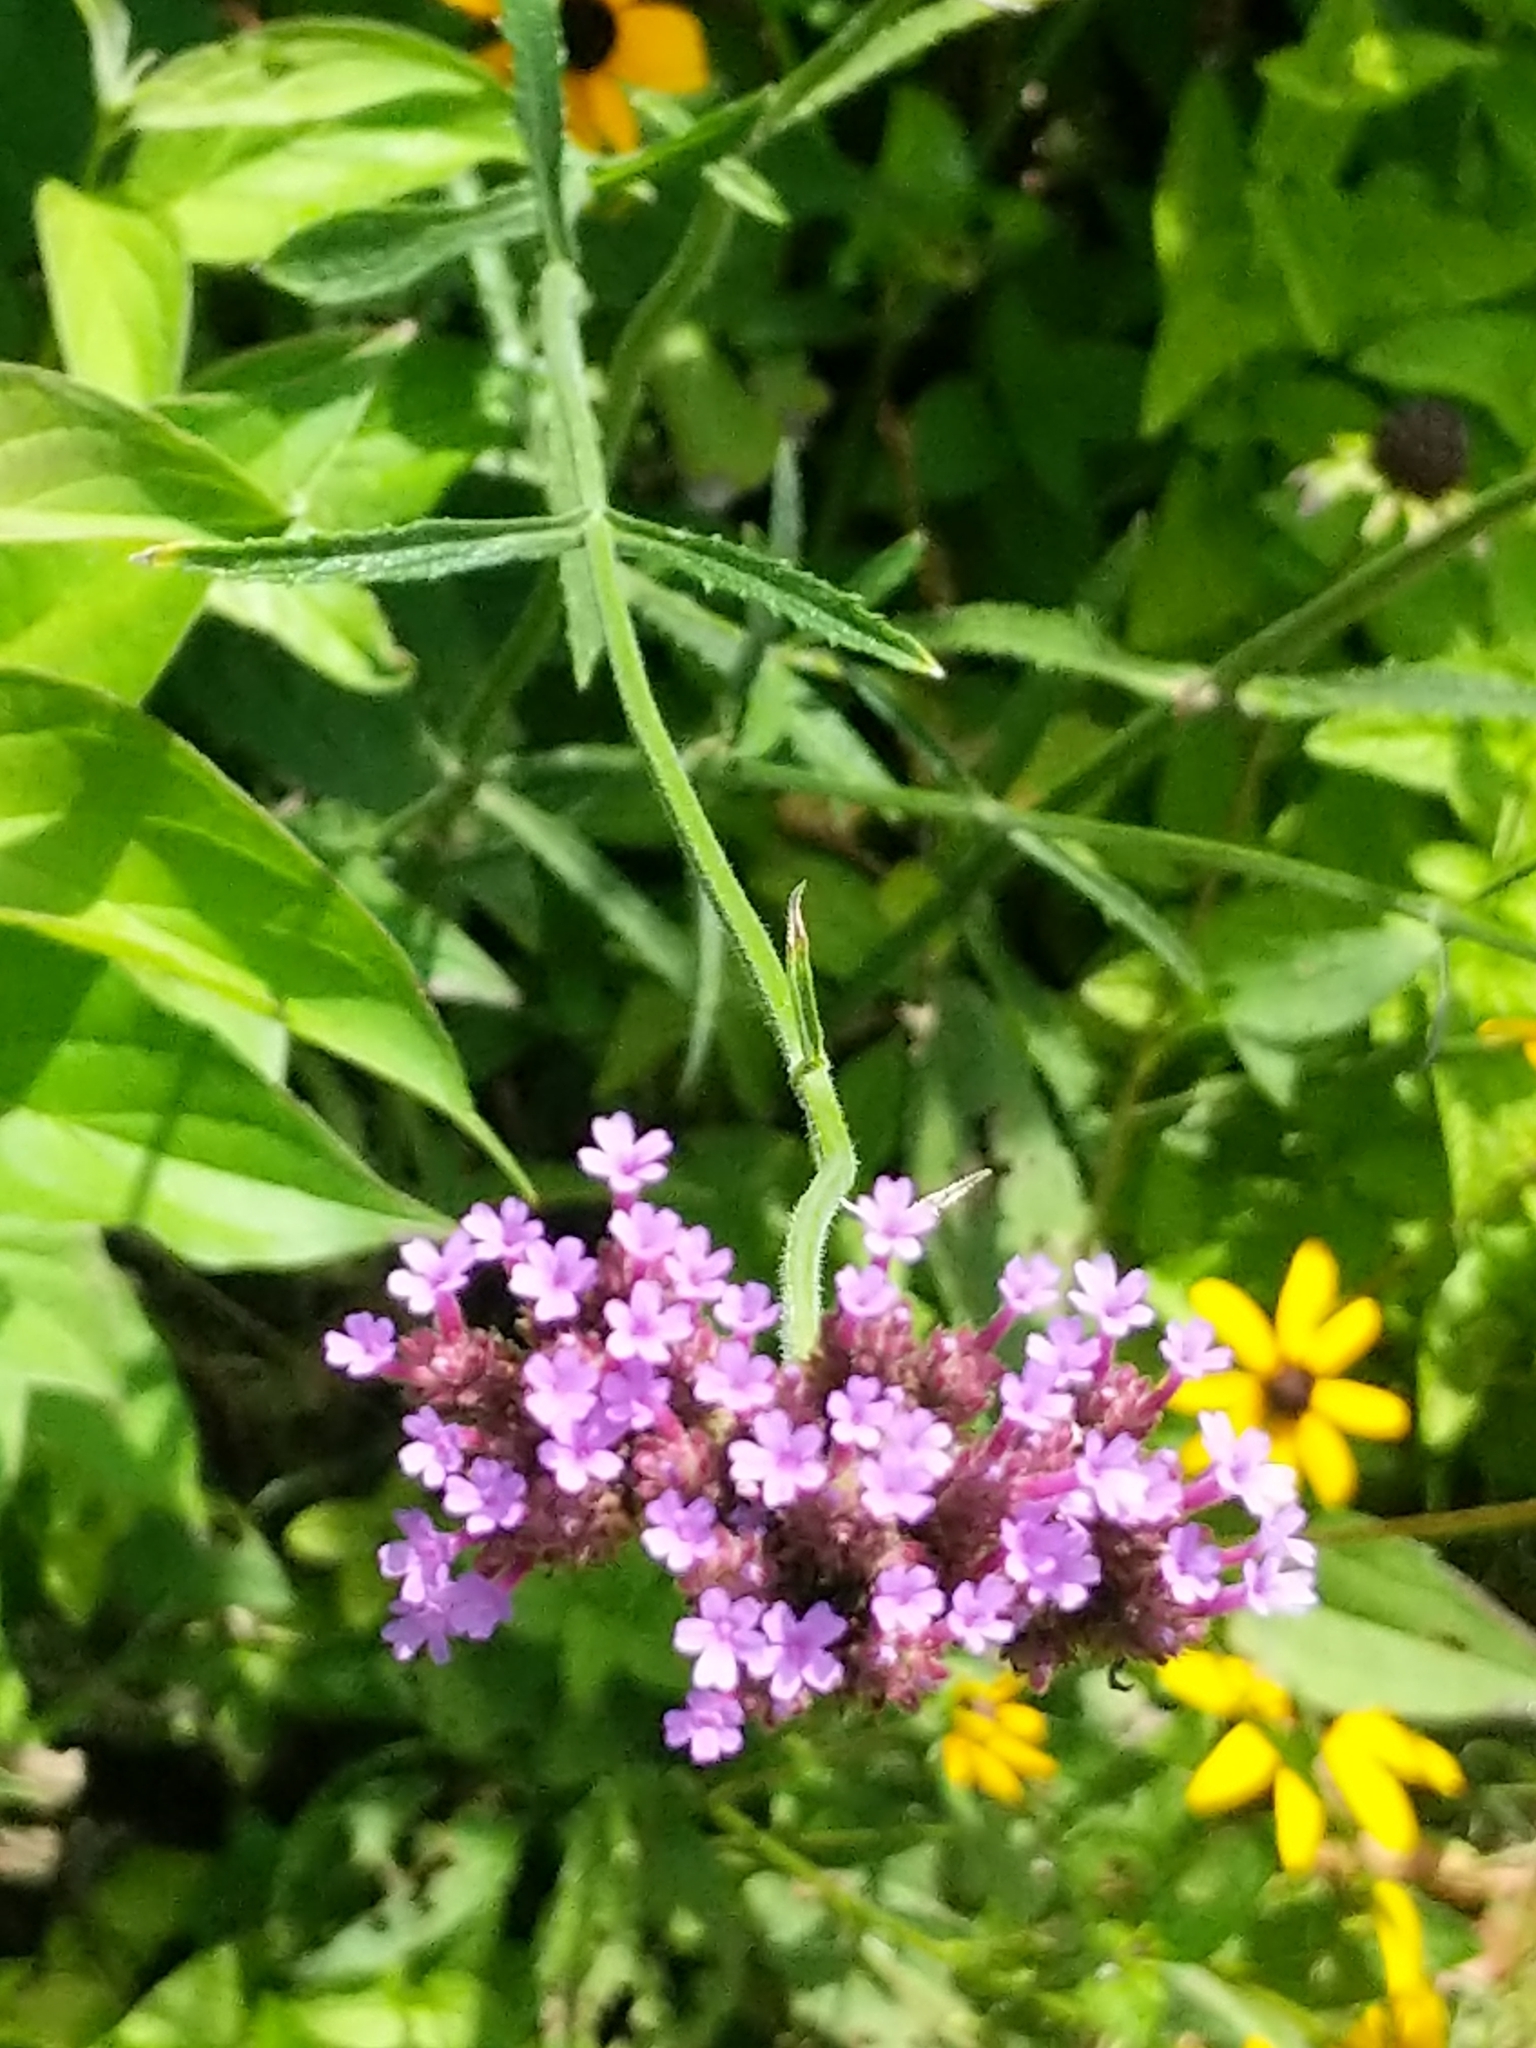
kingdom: Plantae
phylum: Tracheophyta
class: Magnoliopsida
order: Lamiales
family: Verbenaceae
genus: Verbena
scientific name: Verbena bonariensis
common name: Purpletop vervain
